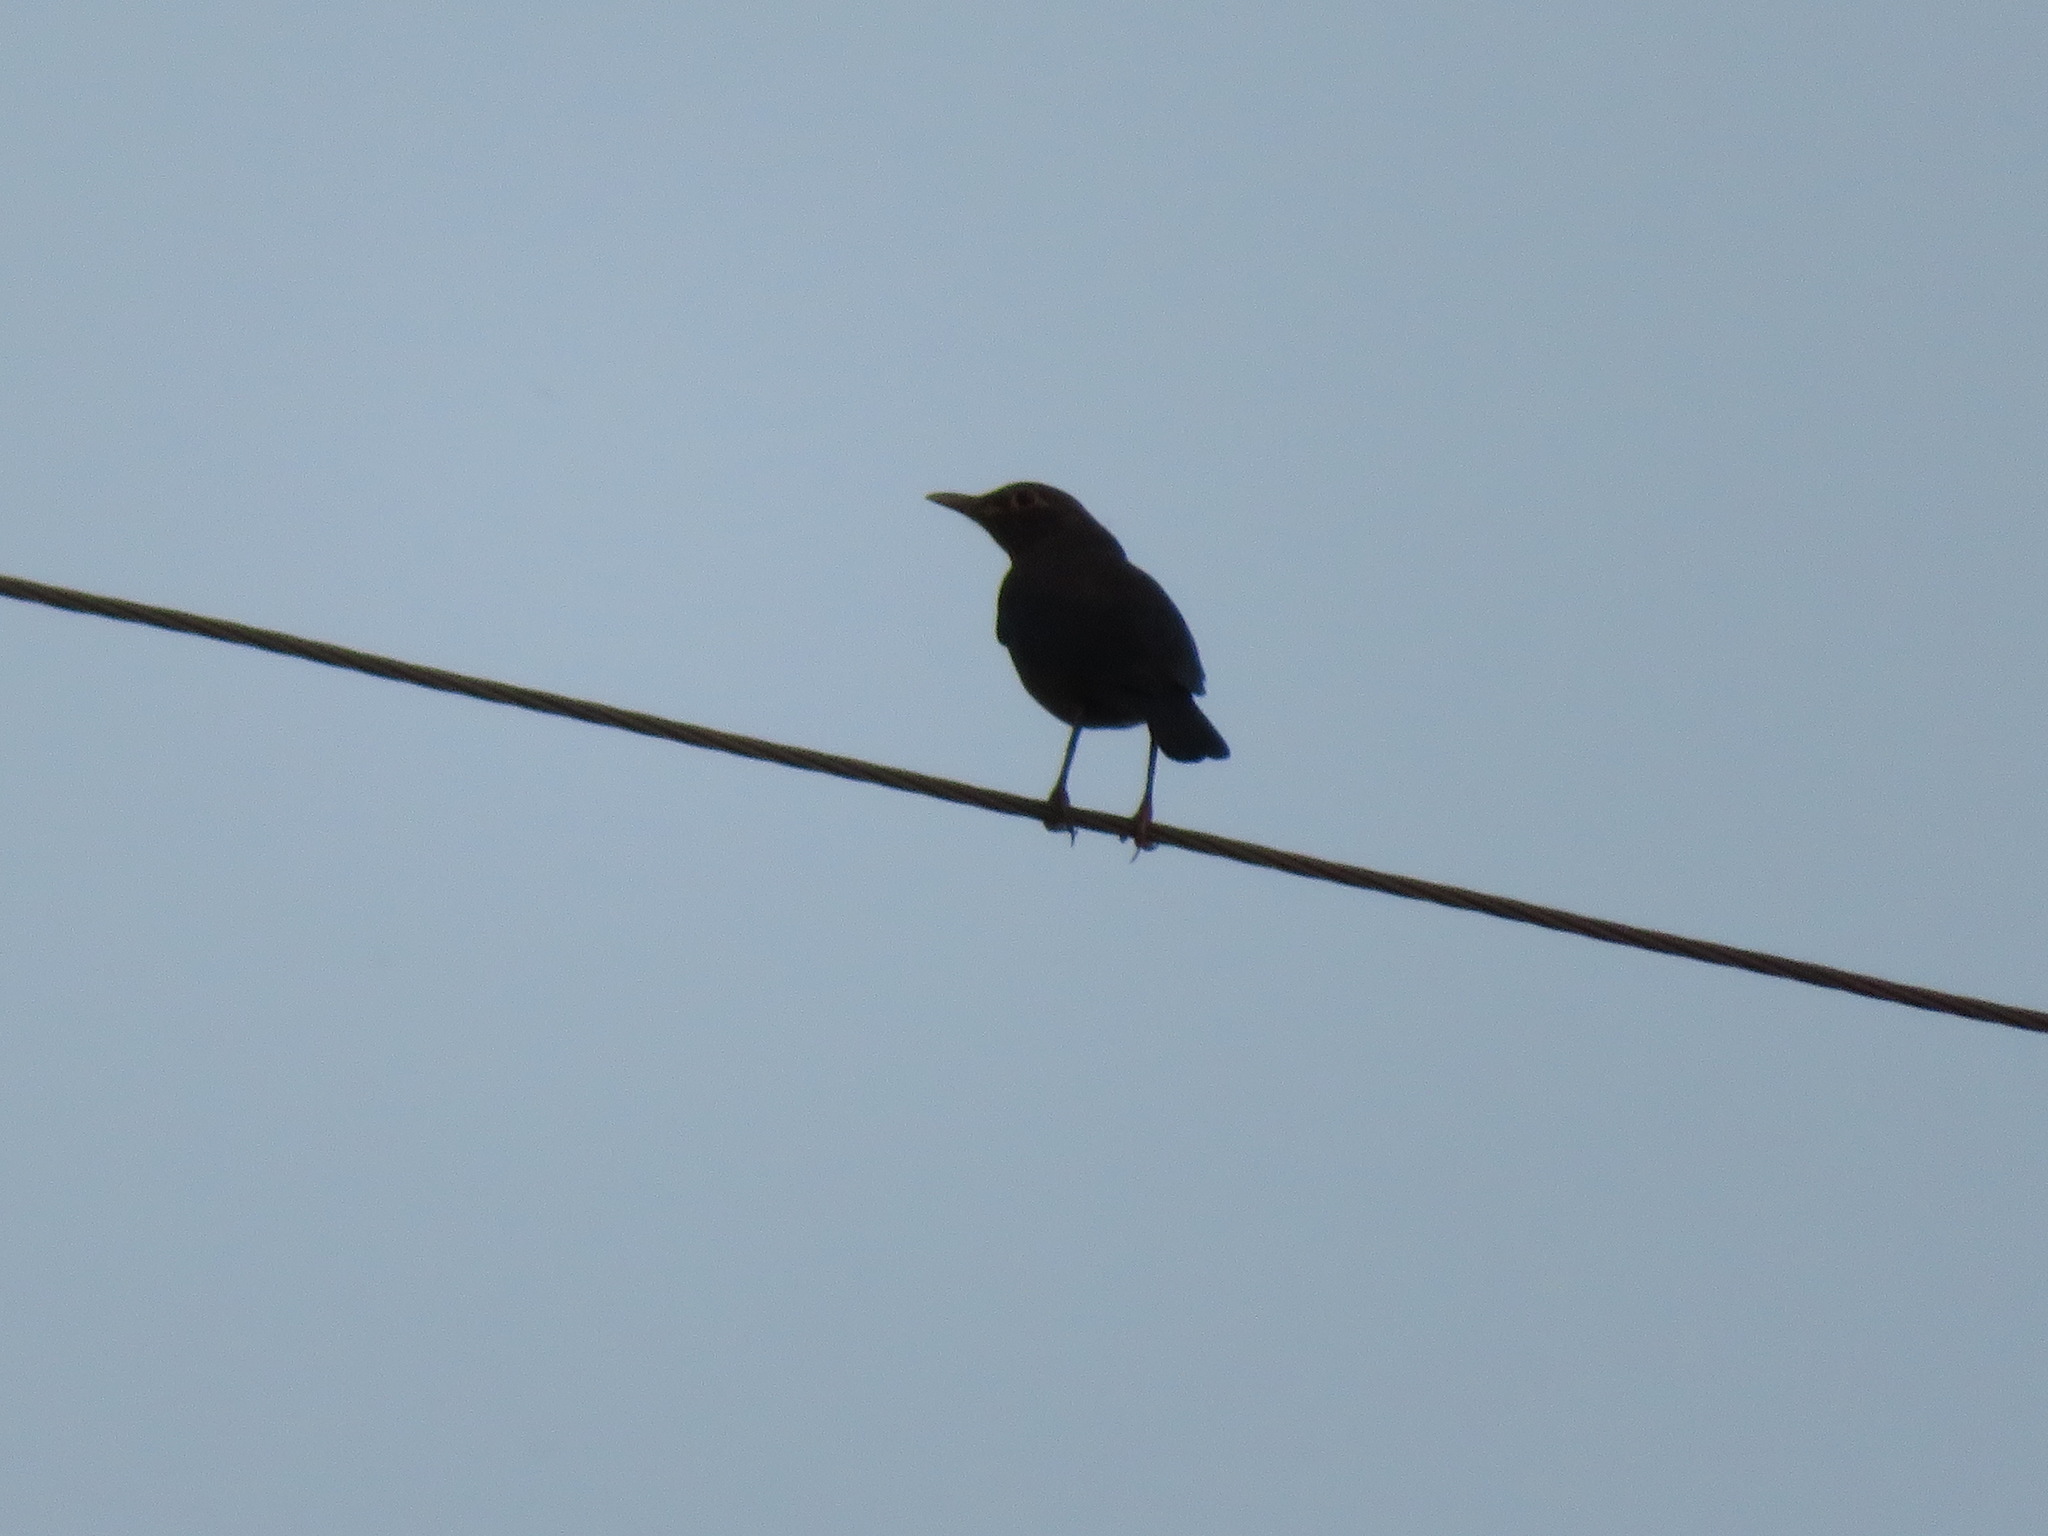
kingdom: Animalia
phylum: Chordata
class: Aves
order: Passeriformes
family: Turdidae
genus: Turdus
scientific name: Turdus mandarinus
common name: Chinese blackbird
